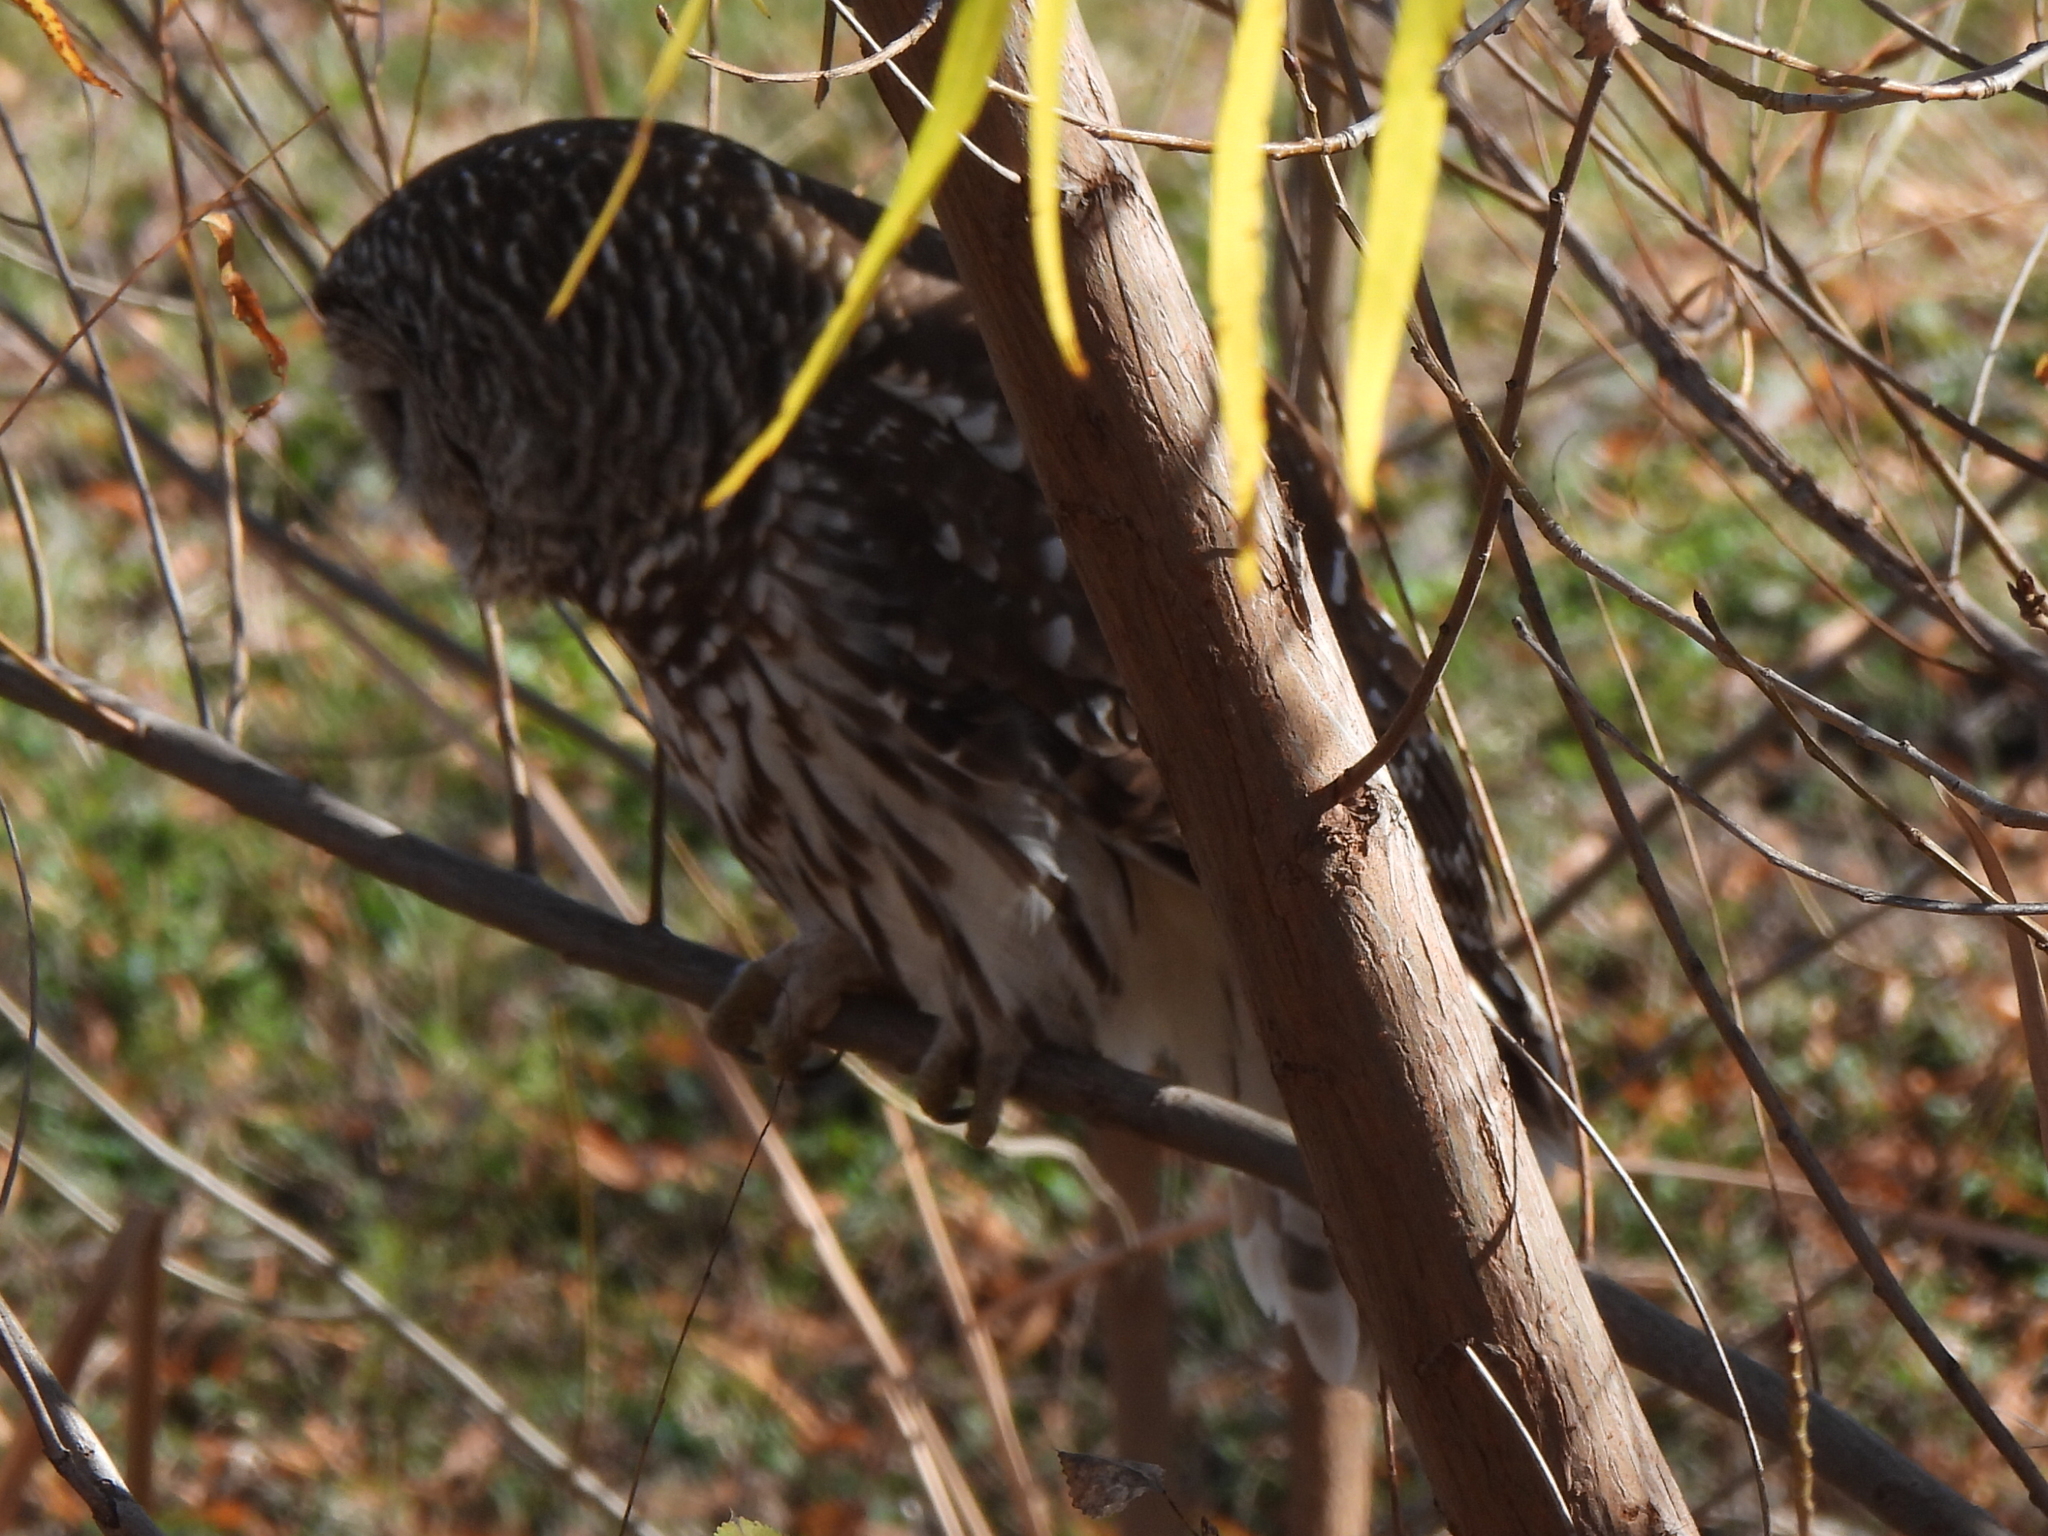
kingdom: Animalia
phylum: Chordata
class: Aves
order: Strigiformes
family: Strigidae
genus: Strix
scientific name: Strix varia
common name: Barred owl
